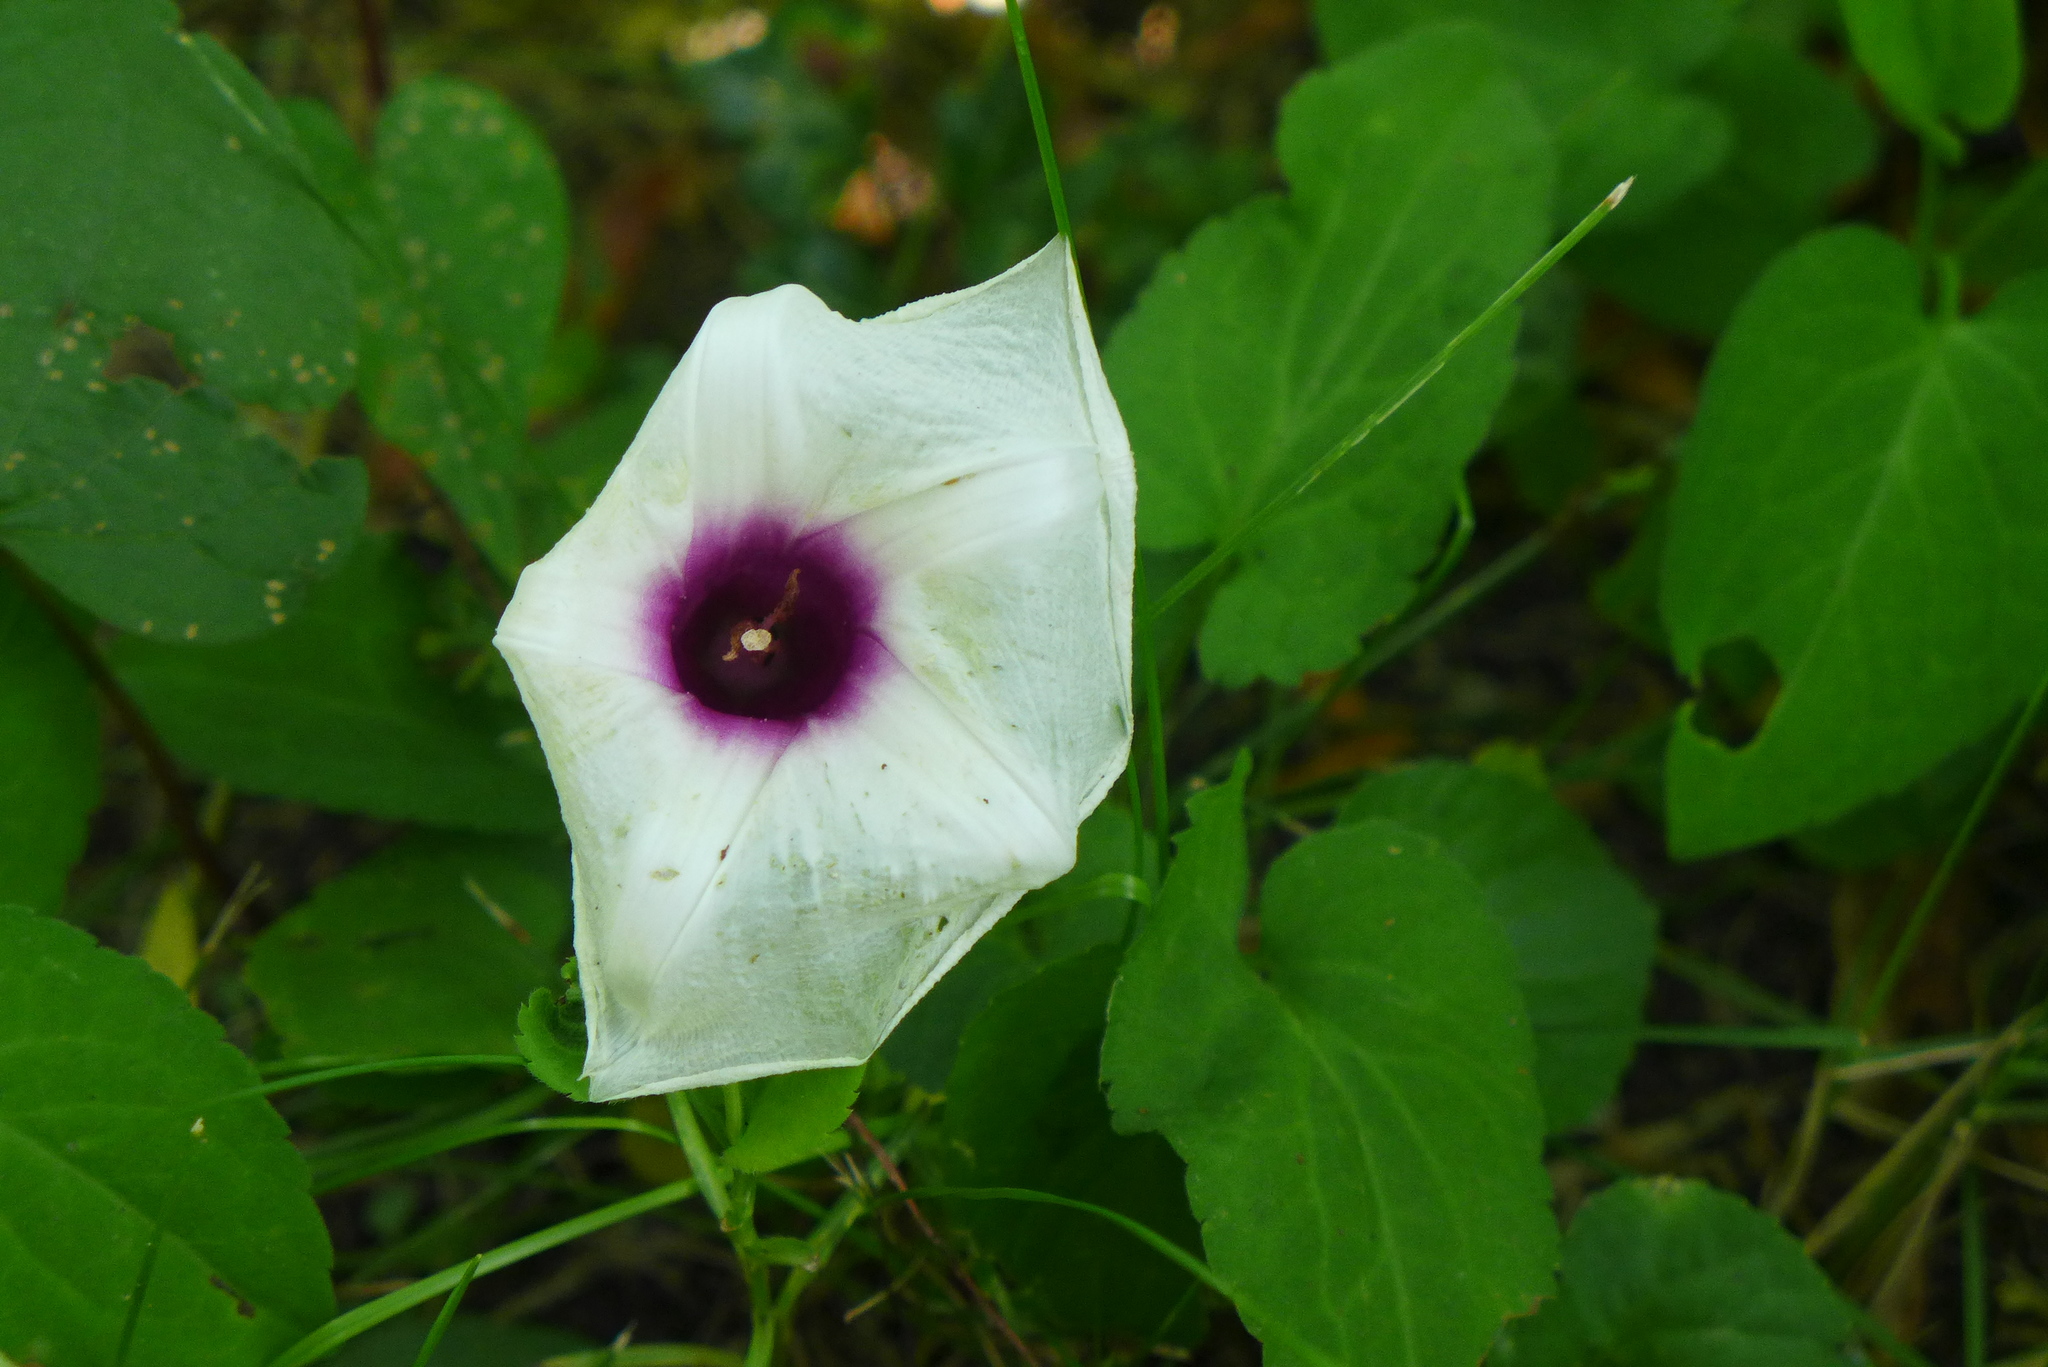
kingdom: Plantae
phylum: Tracheophyta
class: Magnoliopsida
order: Solanales
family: Convolvulaceae
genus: Ipomoea
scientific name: Ipomoea pandurata
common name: Man-of-the-earth
